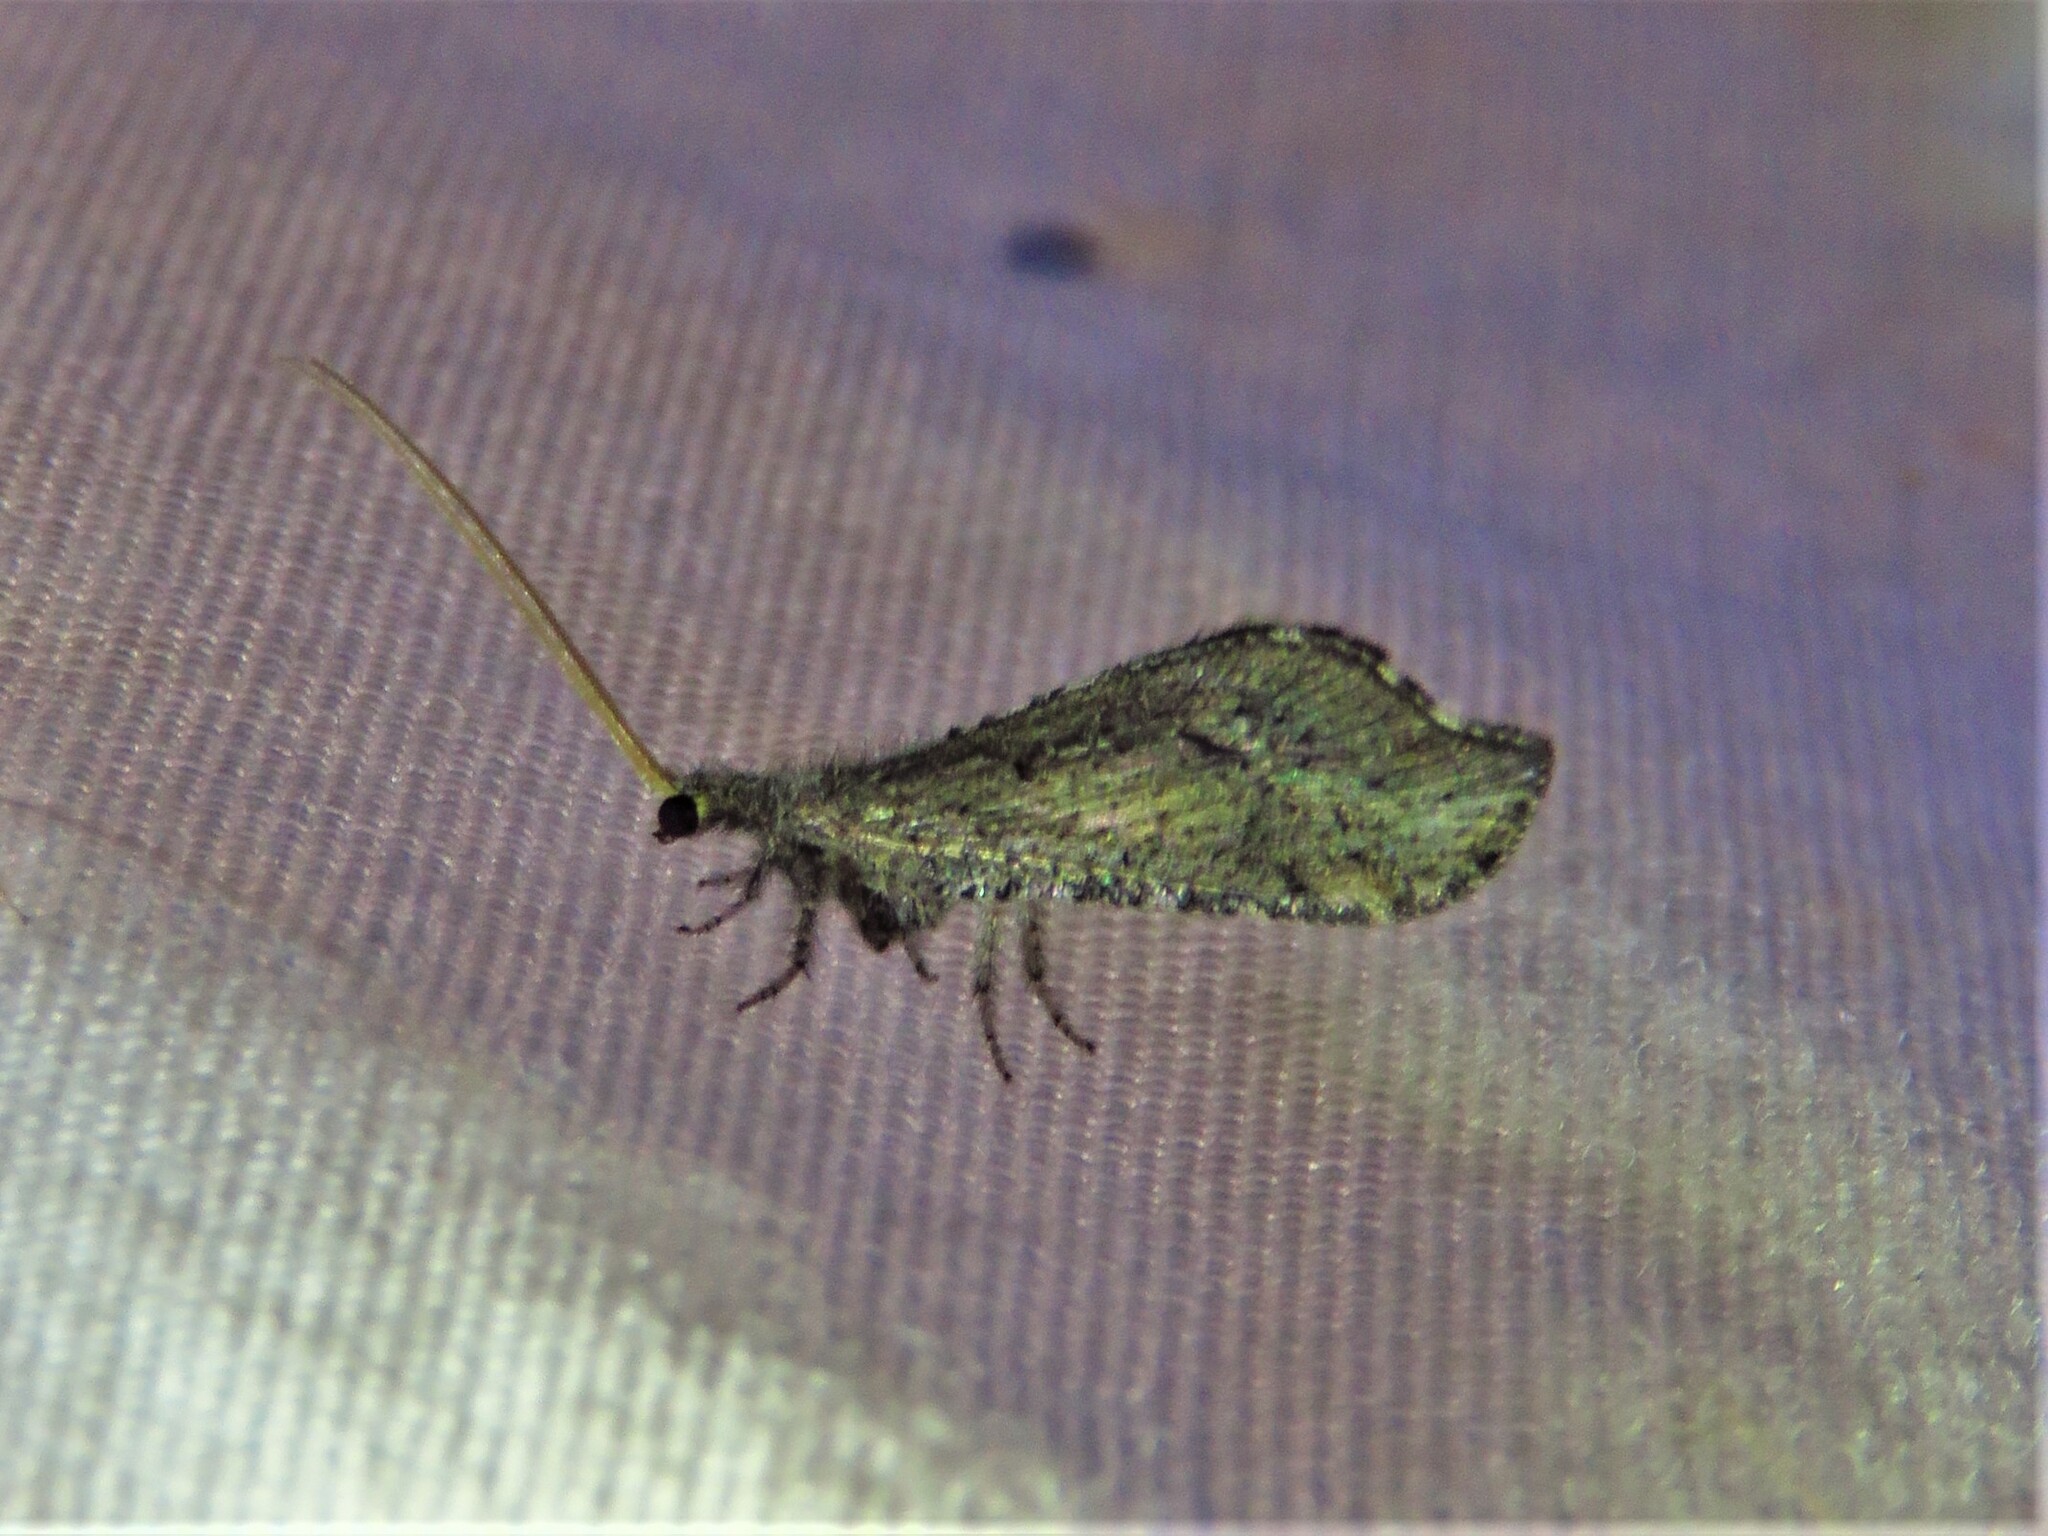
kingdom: Animalia
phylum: Arthropoda
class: Insecta
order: Neuroptera
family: Berothidae
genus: Lomamyia
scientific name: Lomamyia squamosa
